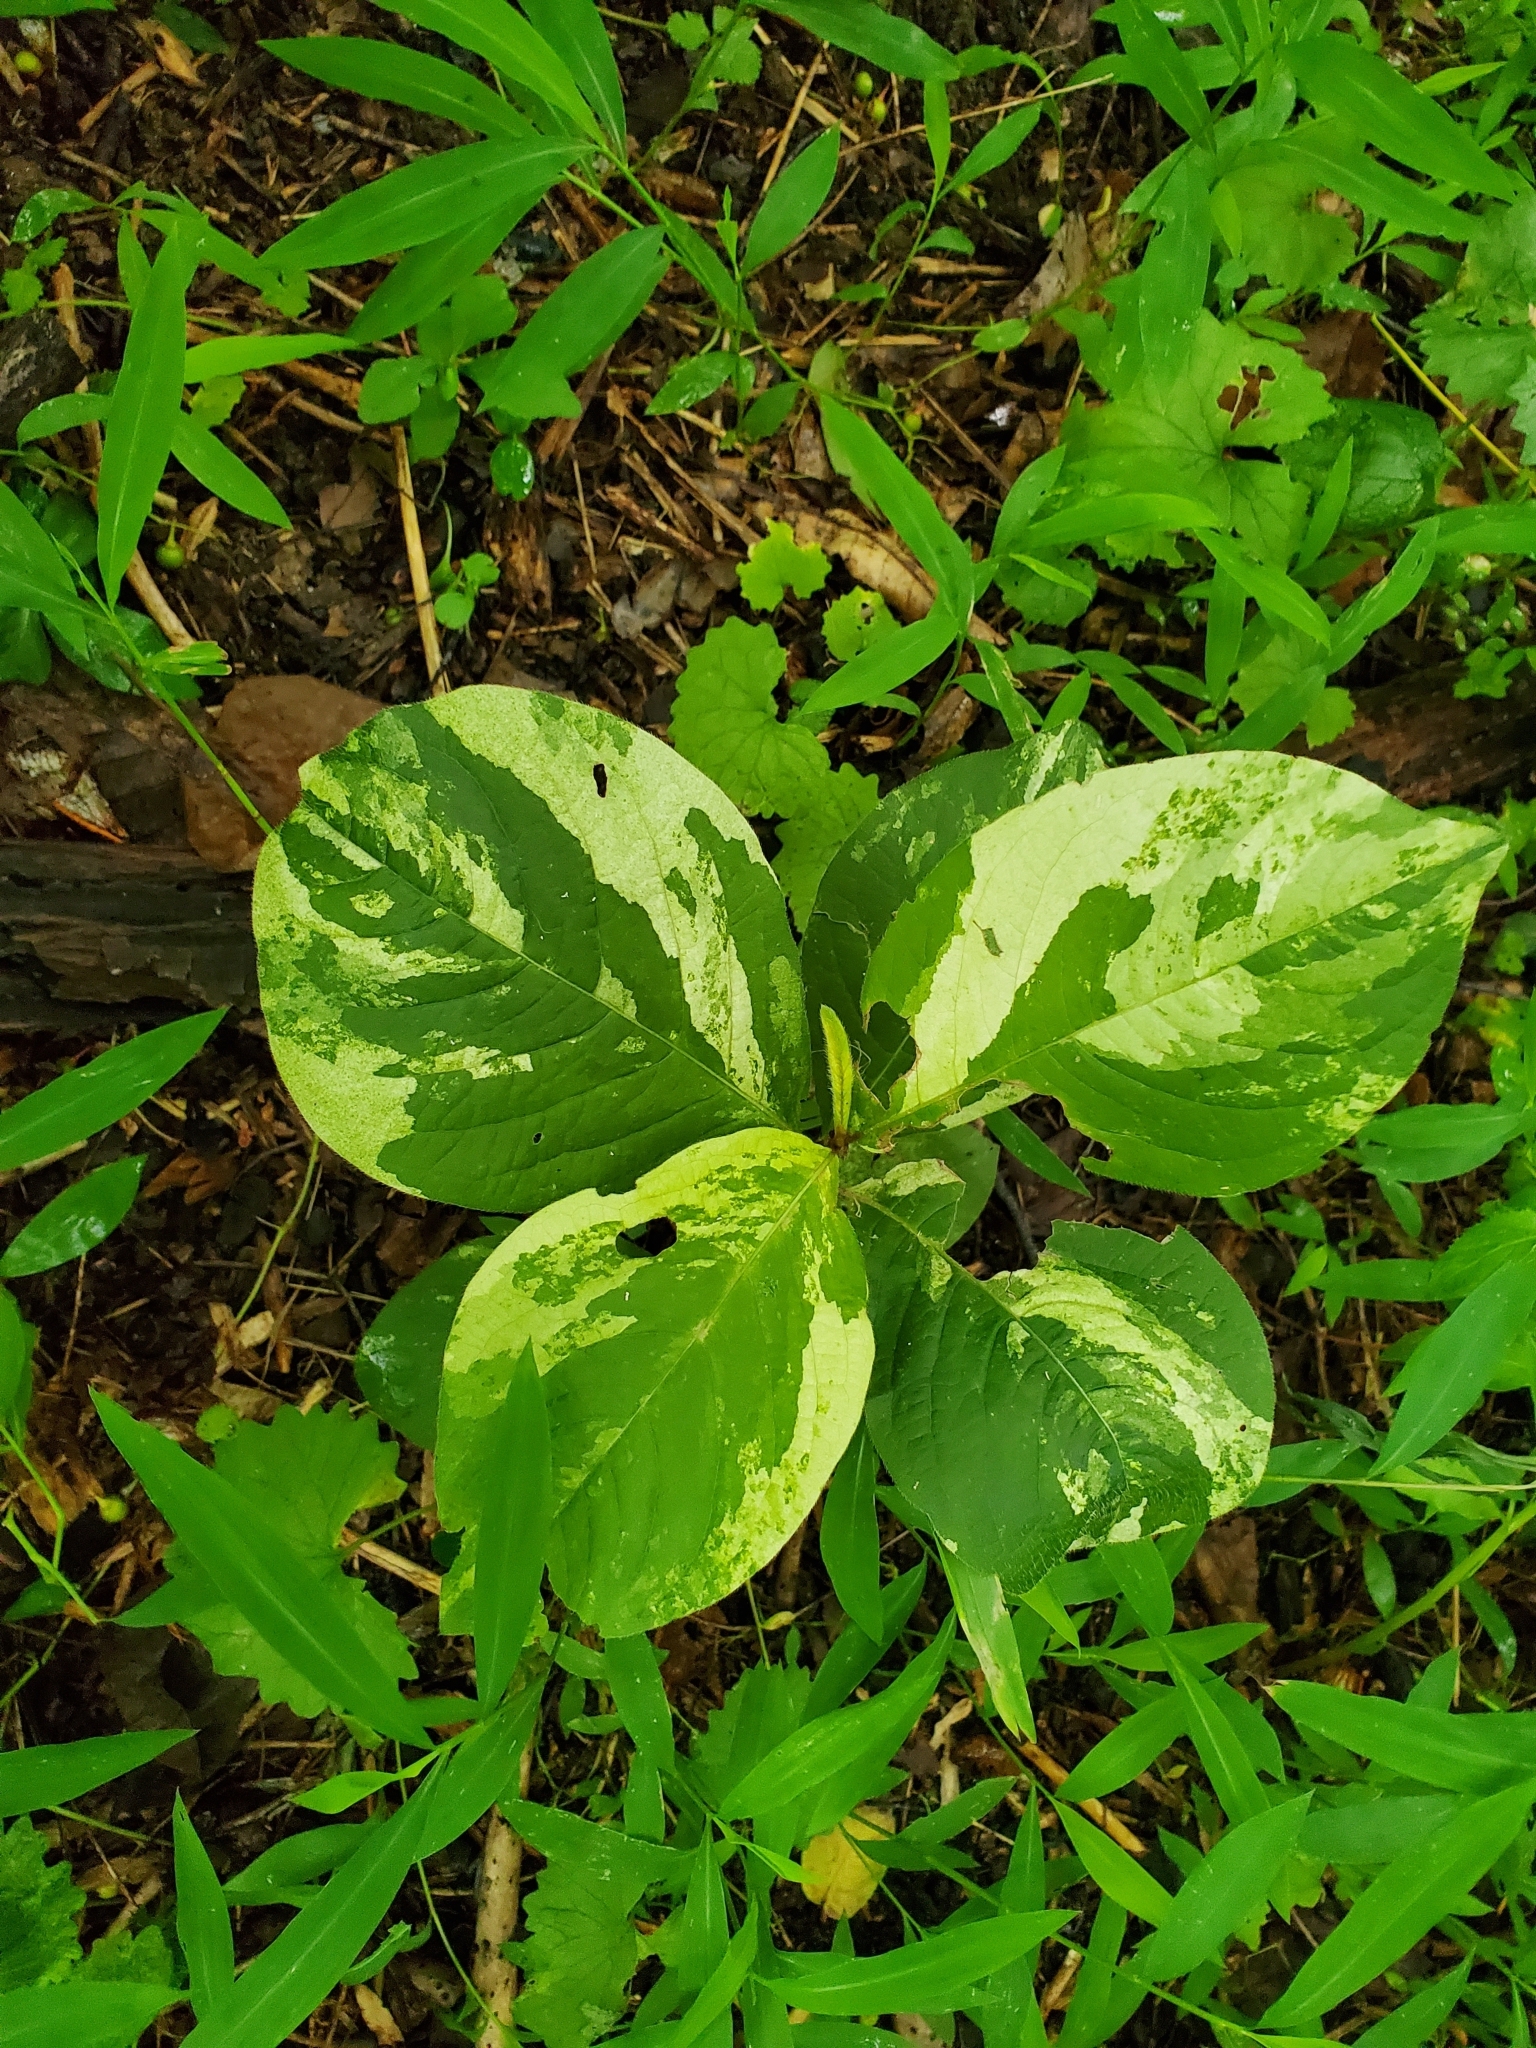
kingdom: Plantae
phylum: Tracheophyta
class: Magnoliopsida
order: Caryophyllales
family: Polygonaceae
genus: Persicaria
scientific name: Persicaria filiformis
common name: Asian jumpseed
